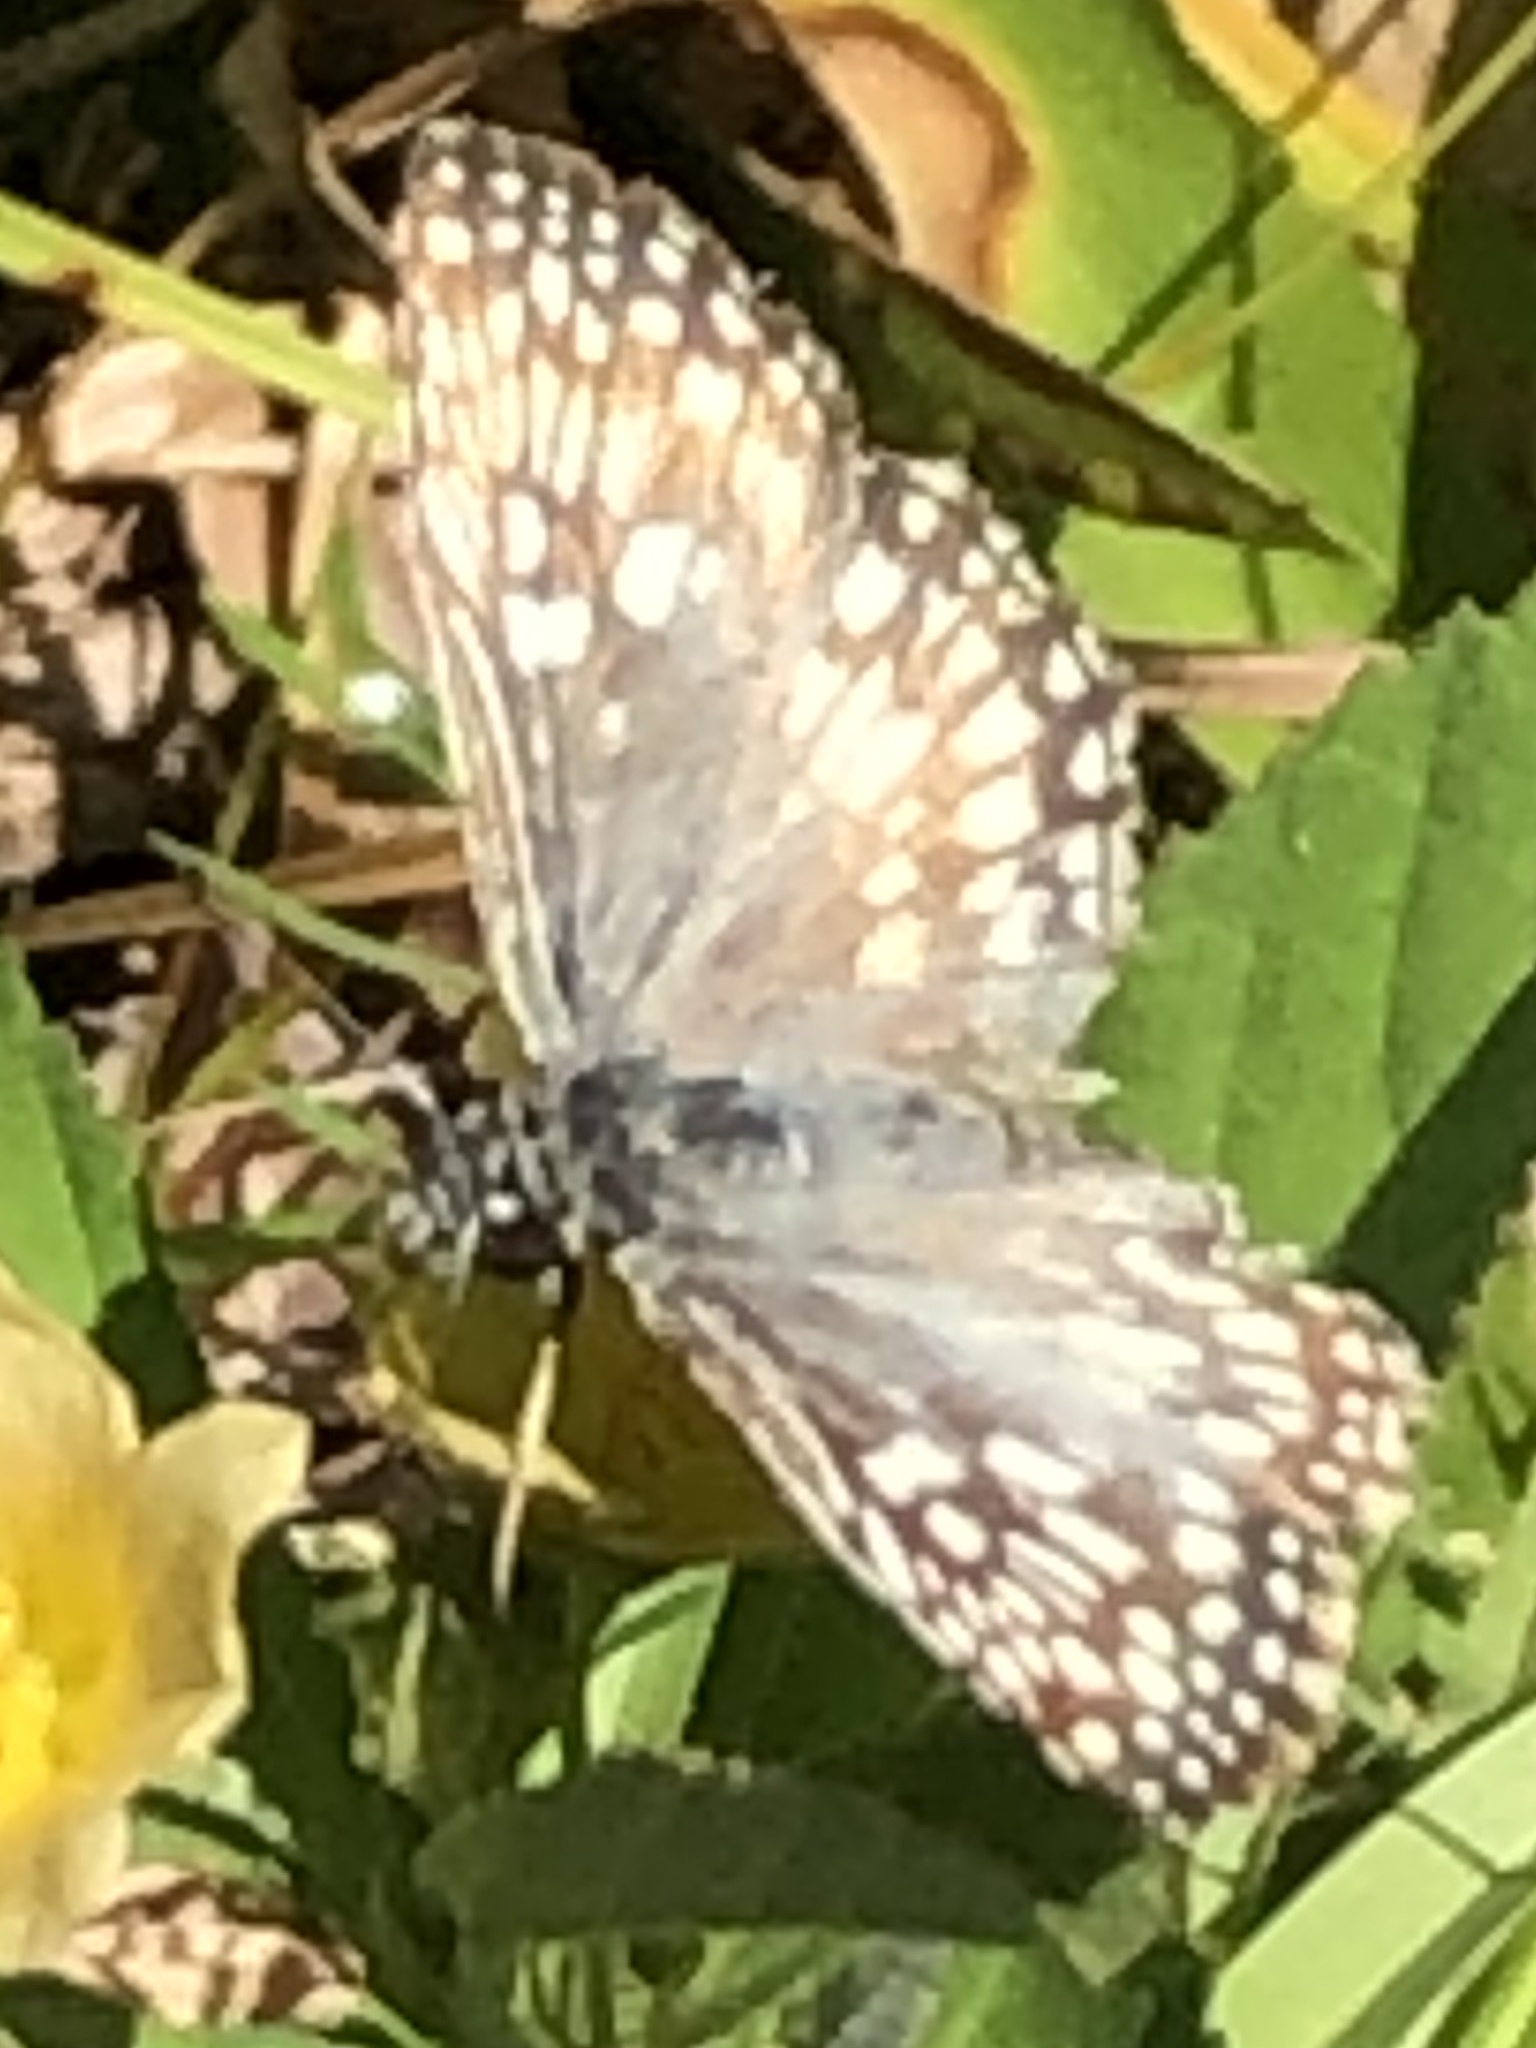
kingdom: Animalia
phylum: Arthropoda
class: Insecta
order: Lepidoptera
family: Hesperiidae
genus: Pyrgus
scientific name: Pyrgus oileus
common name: Tropical checkered-skipper
